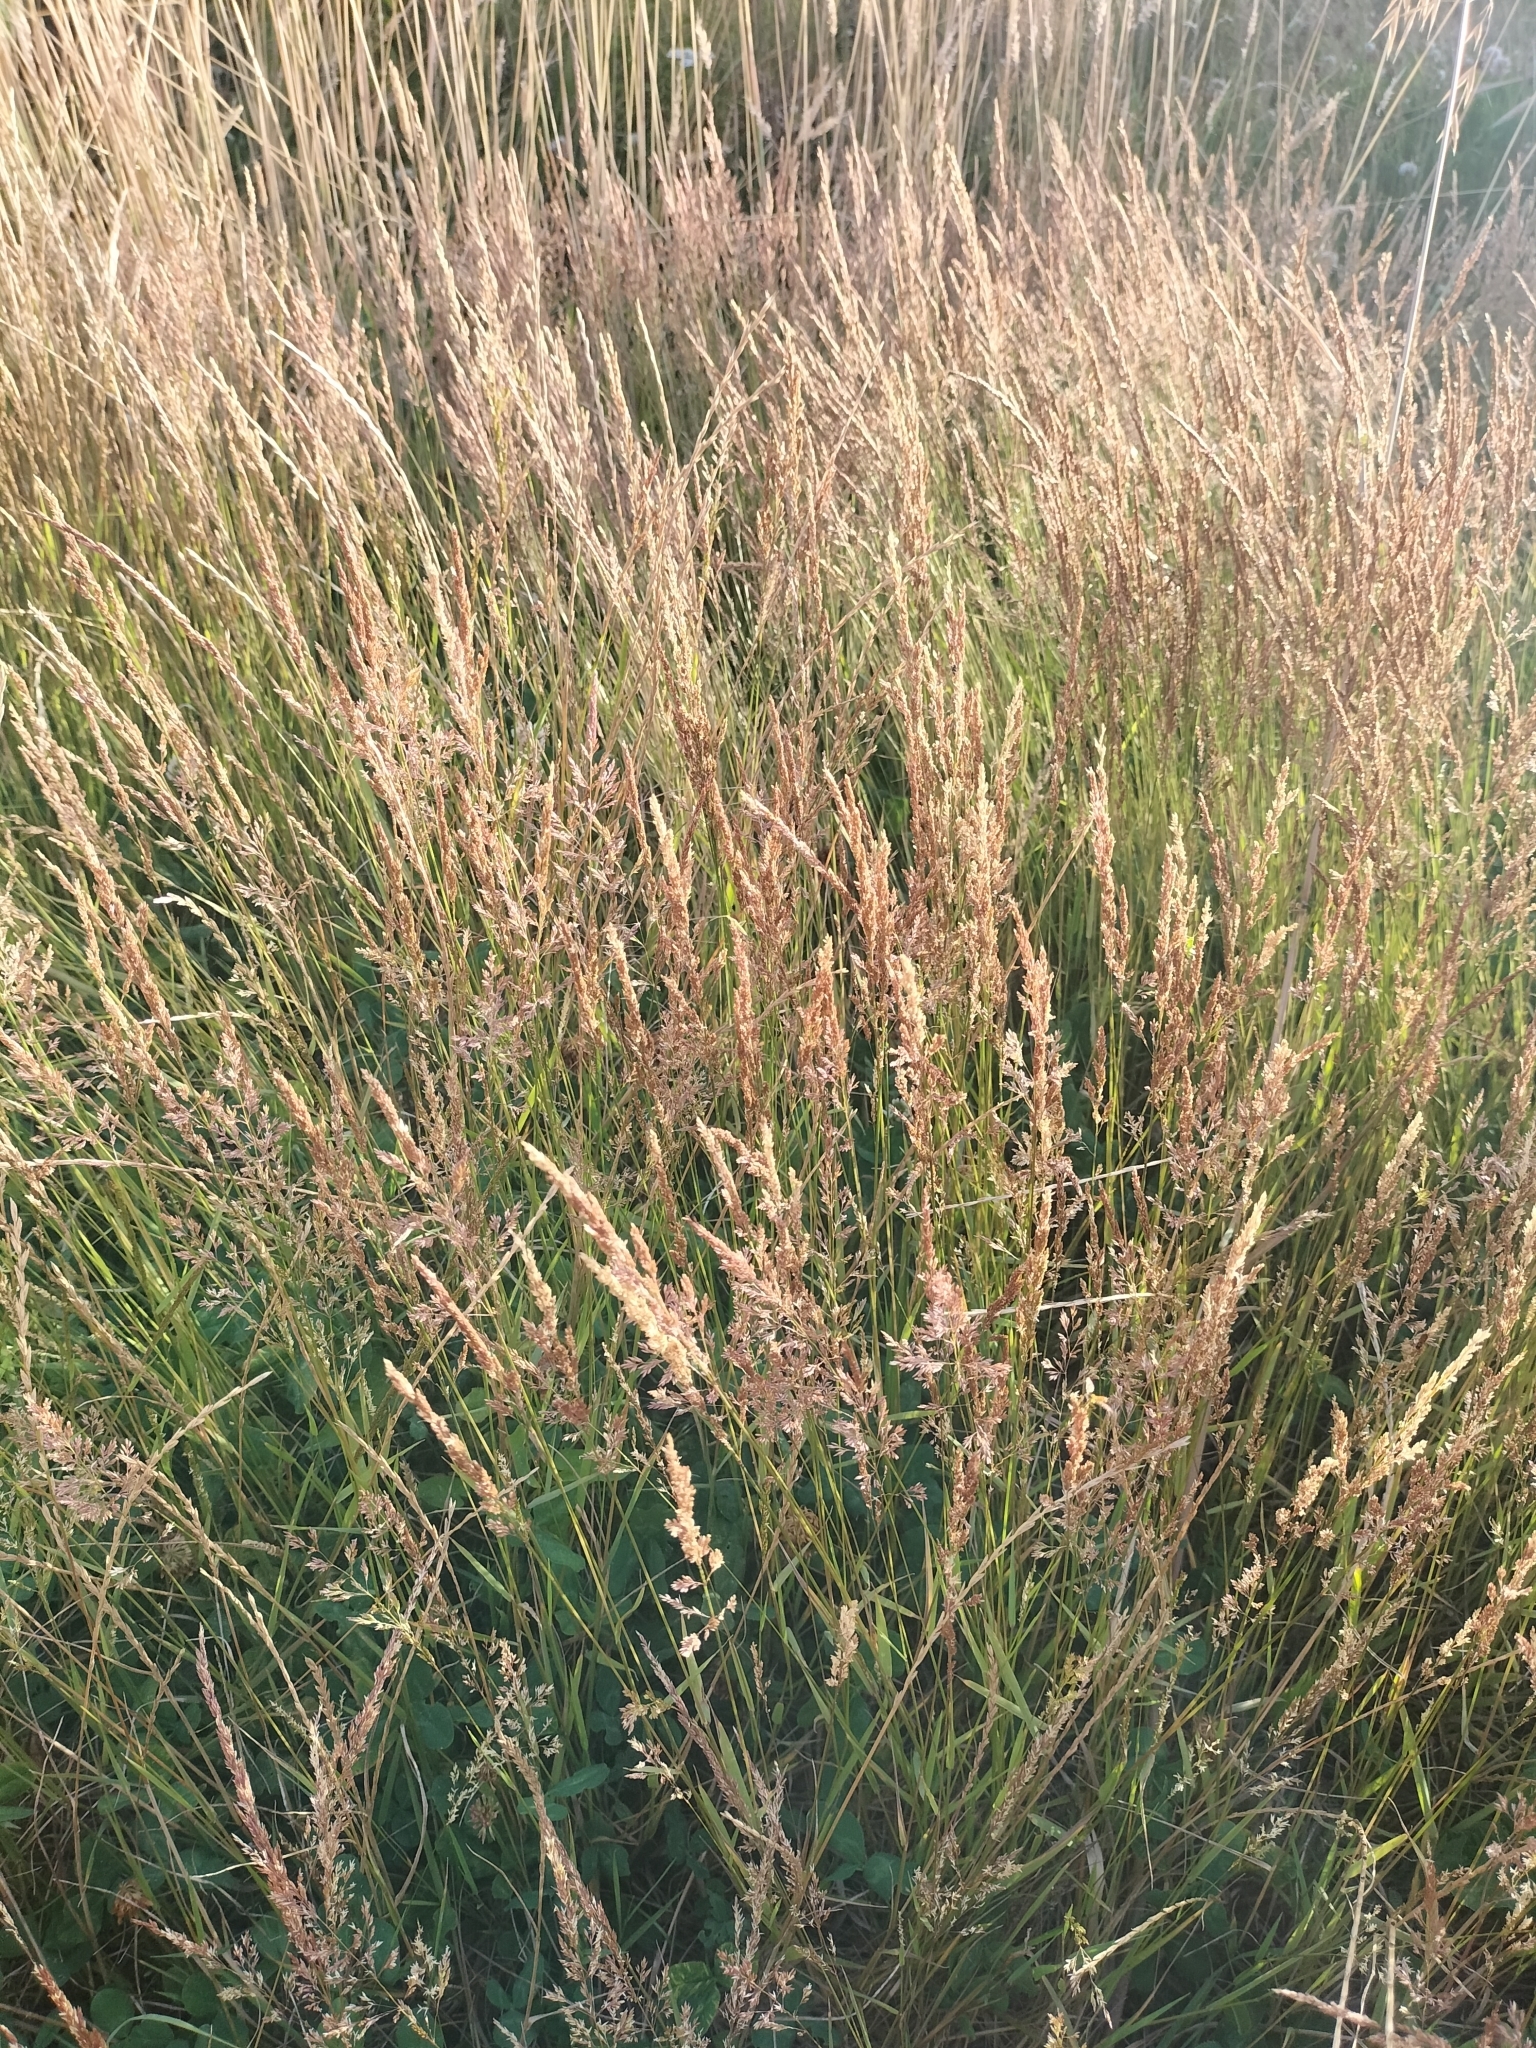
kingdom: Plantae
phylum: Tracheophyta
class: Liliopsida
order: Poales
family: Poaceae
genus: Agrostis
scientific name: Agrostis stolonifera
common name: Creeping bentgrass
